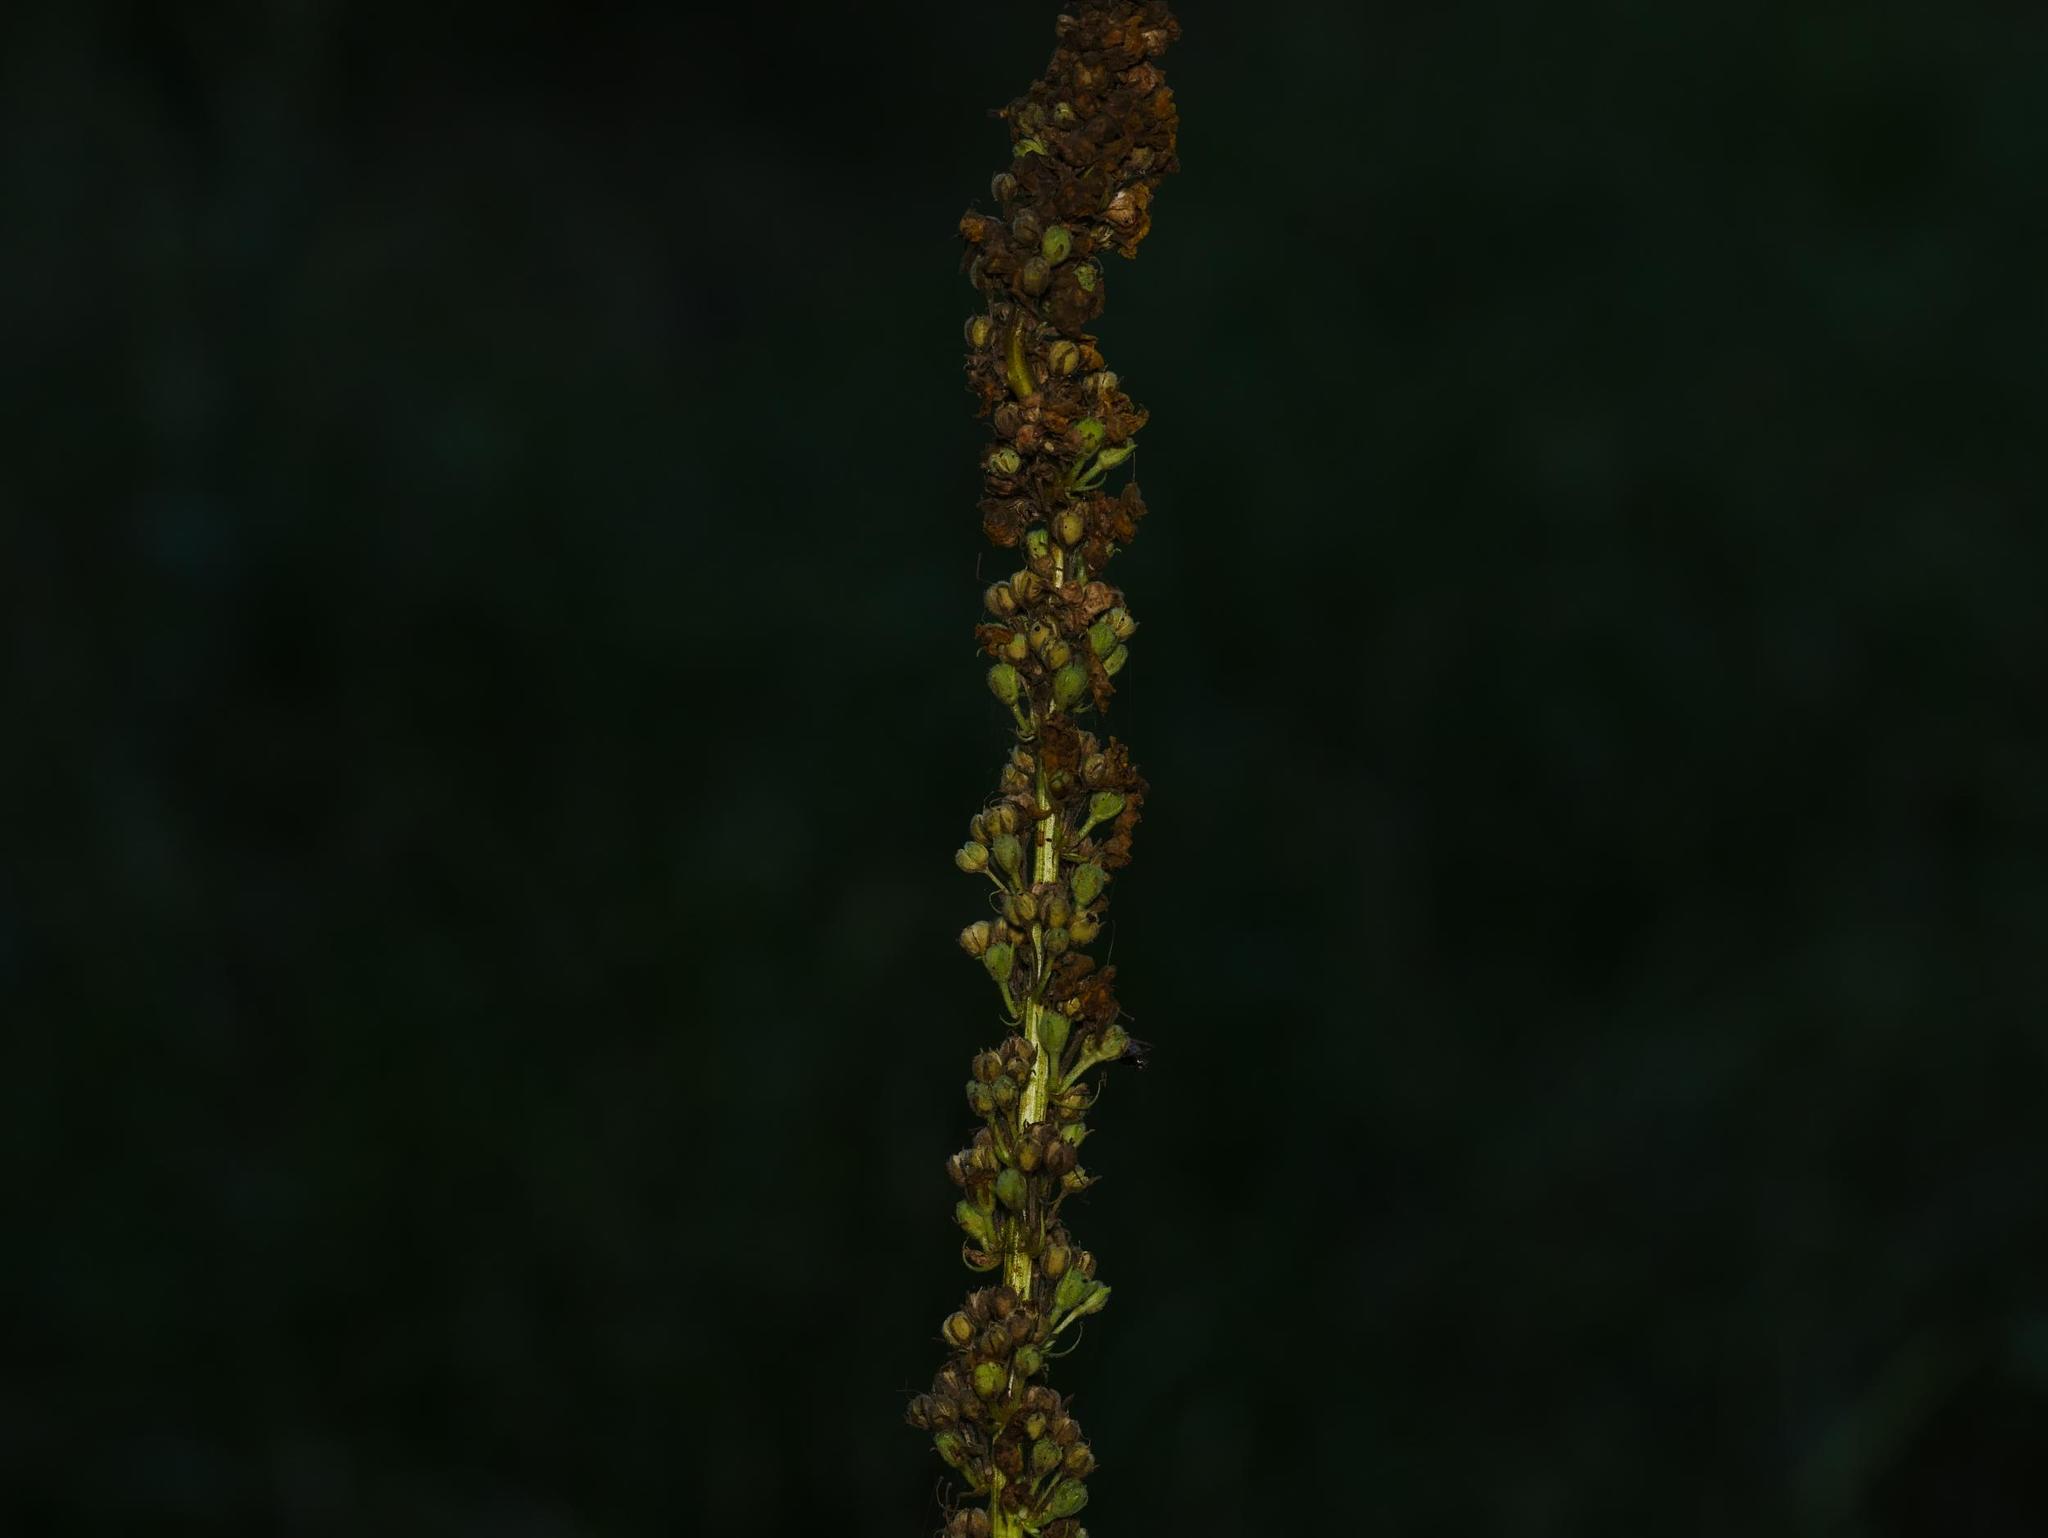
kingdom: Plantae
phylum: Tracheophyta
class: Magnoliopsida
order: Lamiales
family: Scrophulariaceae
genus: Verbascum
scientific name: Verbascum nigrum
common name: Dark mullein
